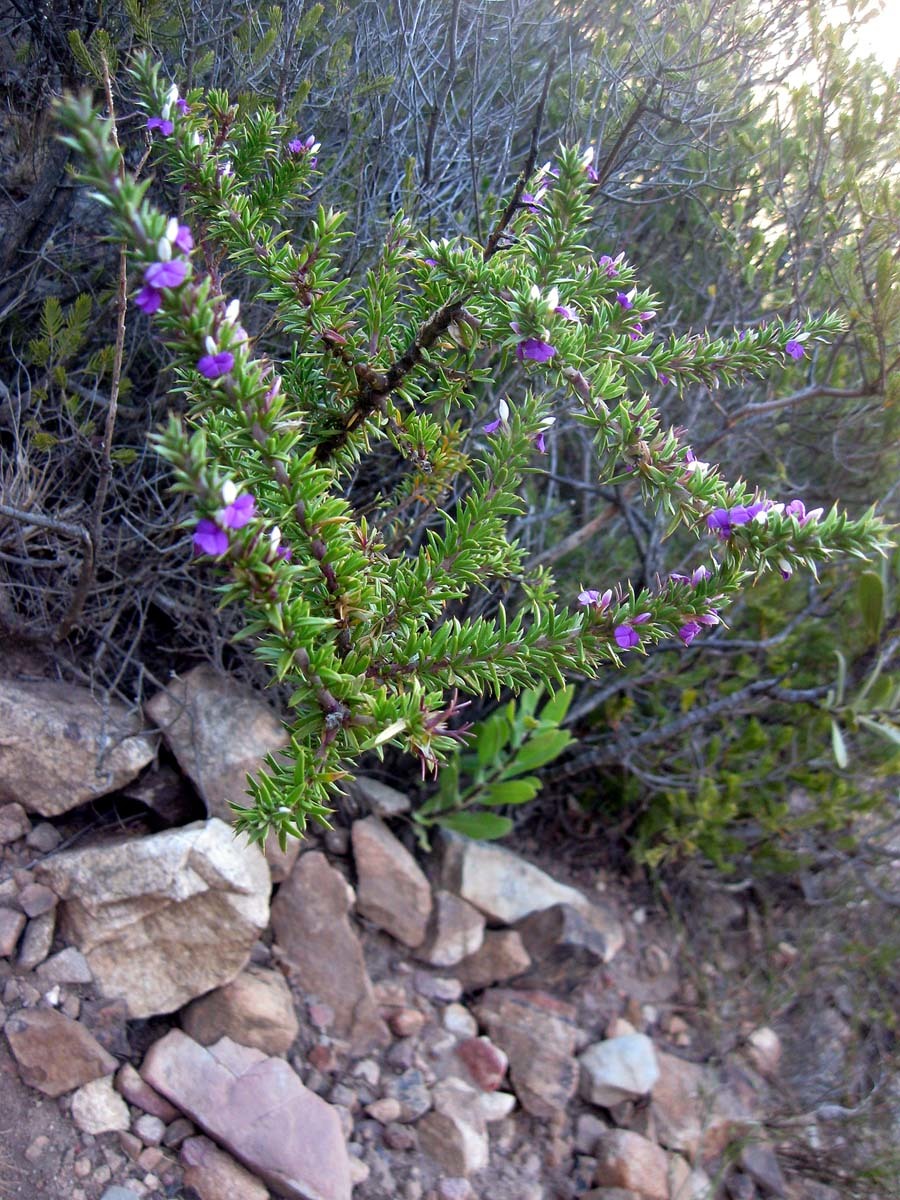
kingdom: Plantae
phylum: Tracheophyta
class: Magnoliopsida
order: Fabales
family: Polygalaceae
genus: Muraltia
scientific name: Muraltia heisteria
